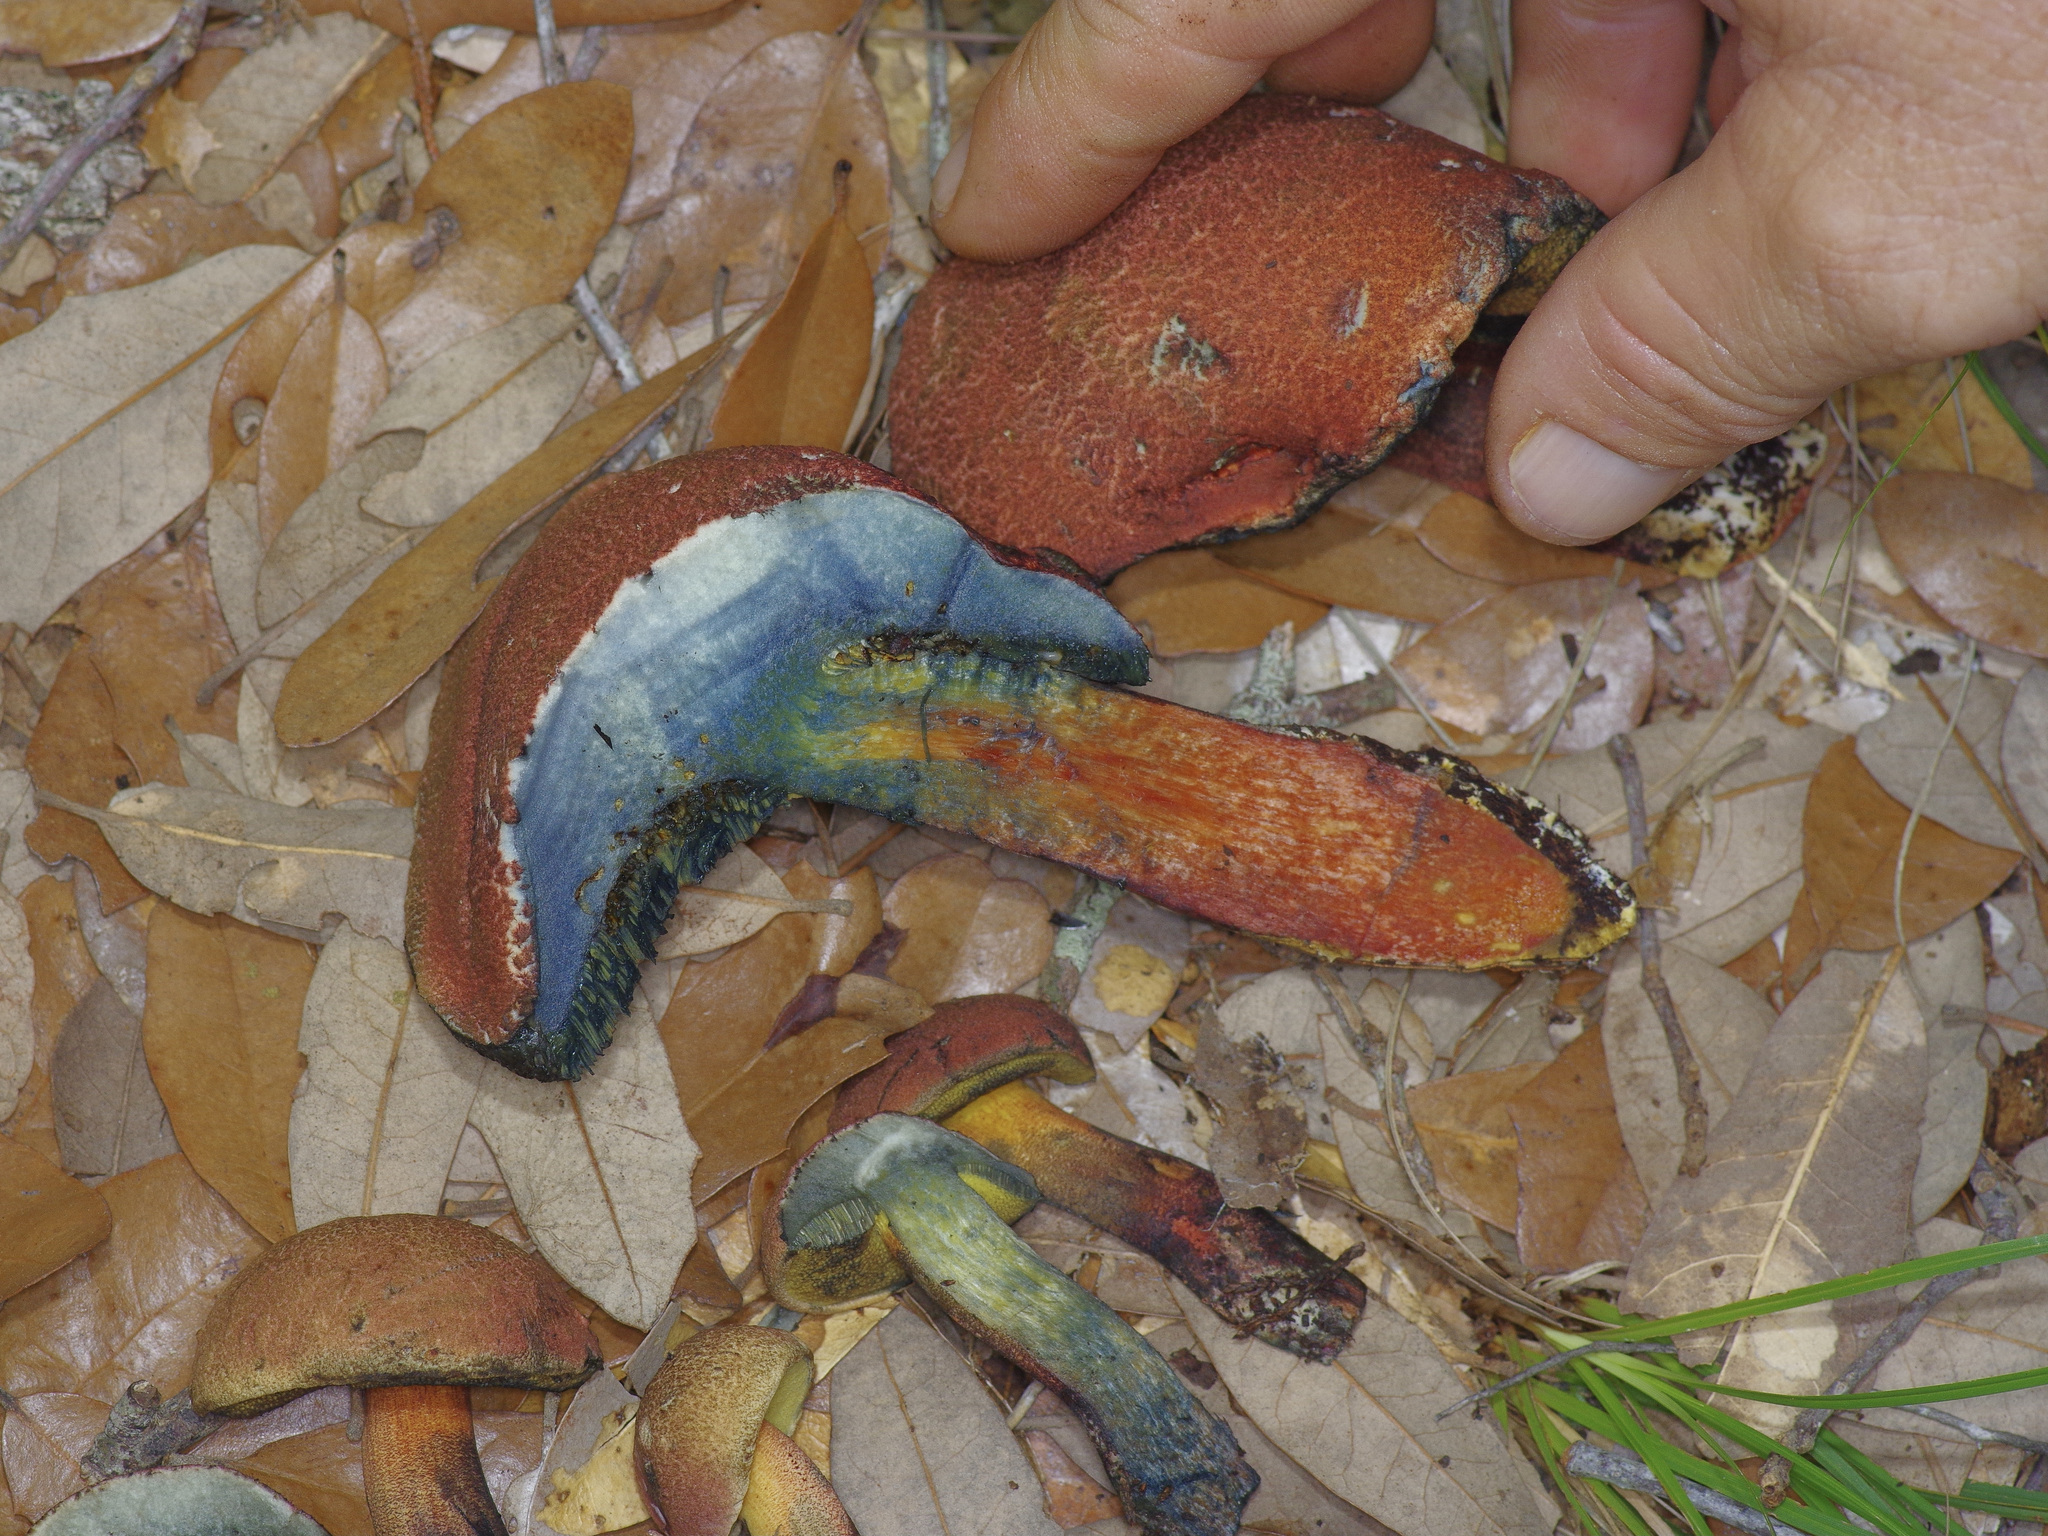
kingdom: Fungi
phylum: Basidiomycota
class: Agaricomycetes
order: Boletales
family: Boletaceae
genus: Hortiboletus
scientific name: Hortiboletus rubellus
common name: Ruby bolete
